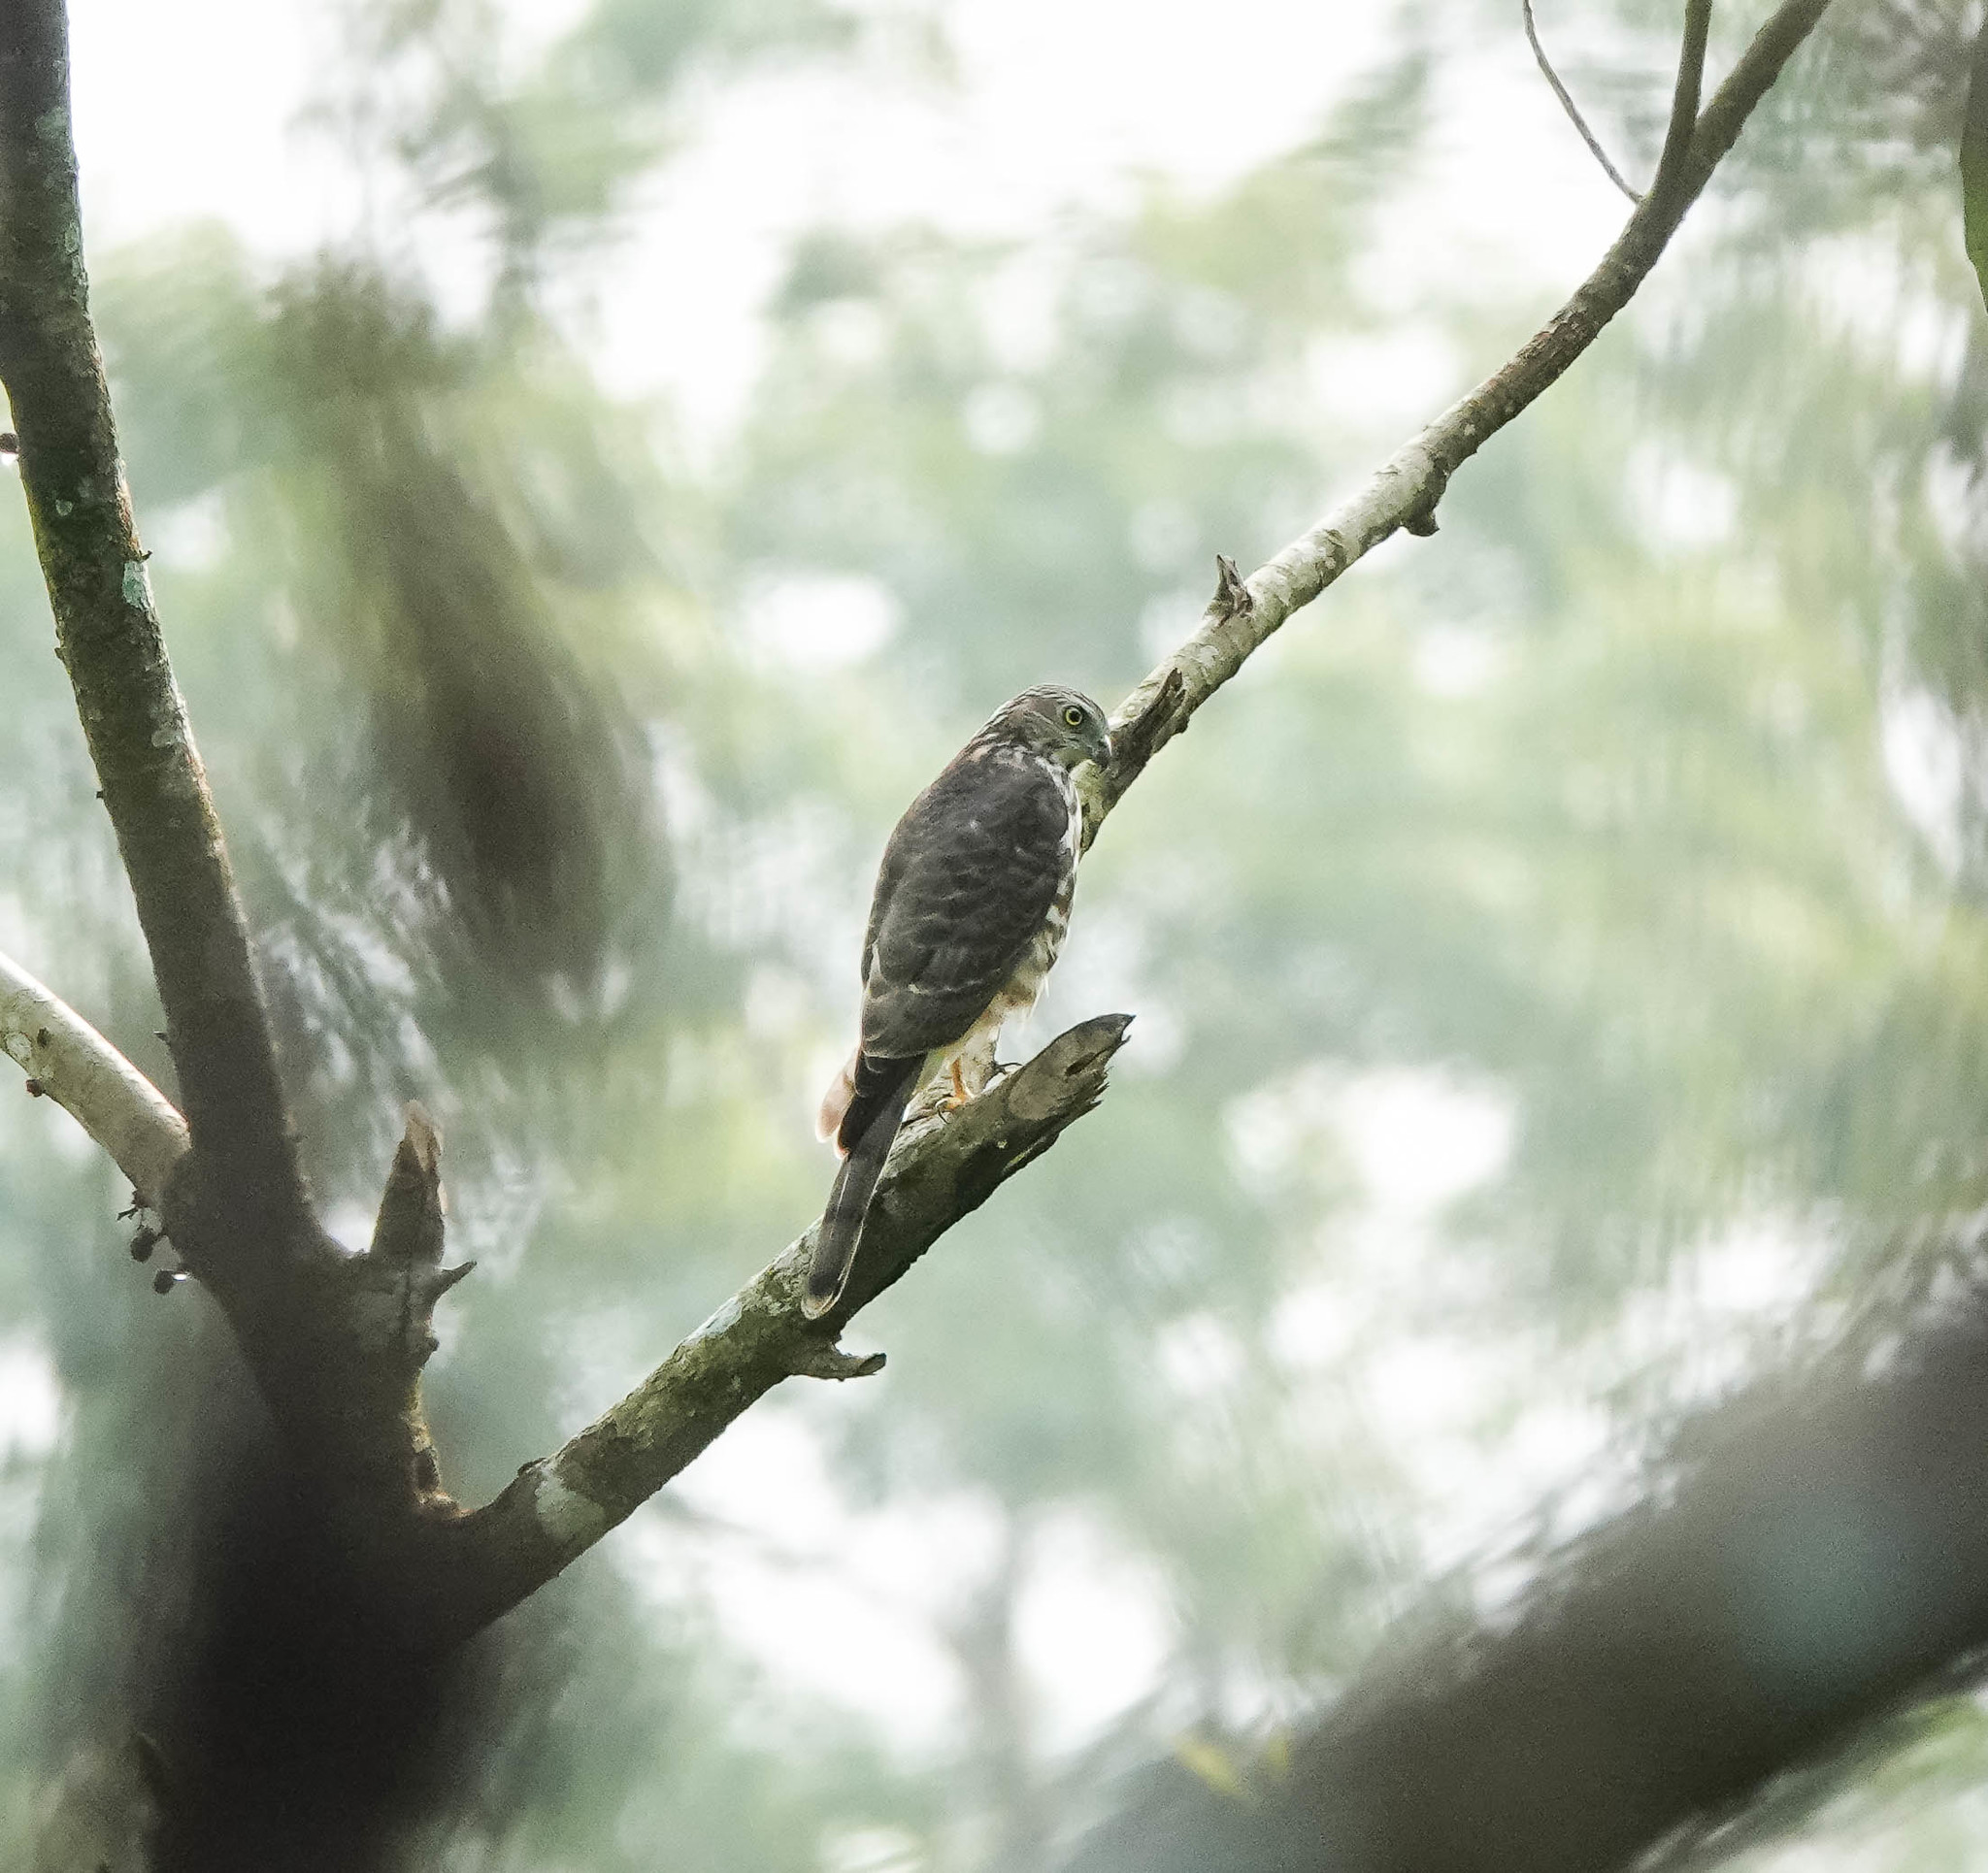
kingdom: Animalia
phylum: Chordata
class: Aves
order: Accipitriformes
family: Accipitridae
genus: Accipiter
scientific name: Accipiter badius
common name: Shikra
